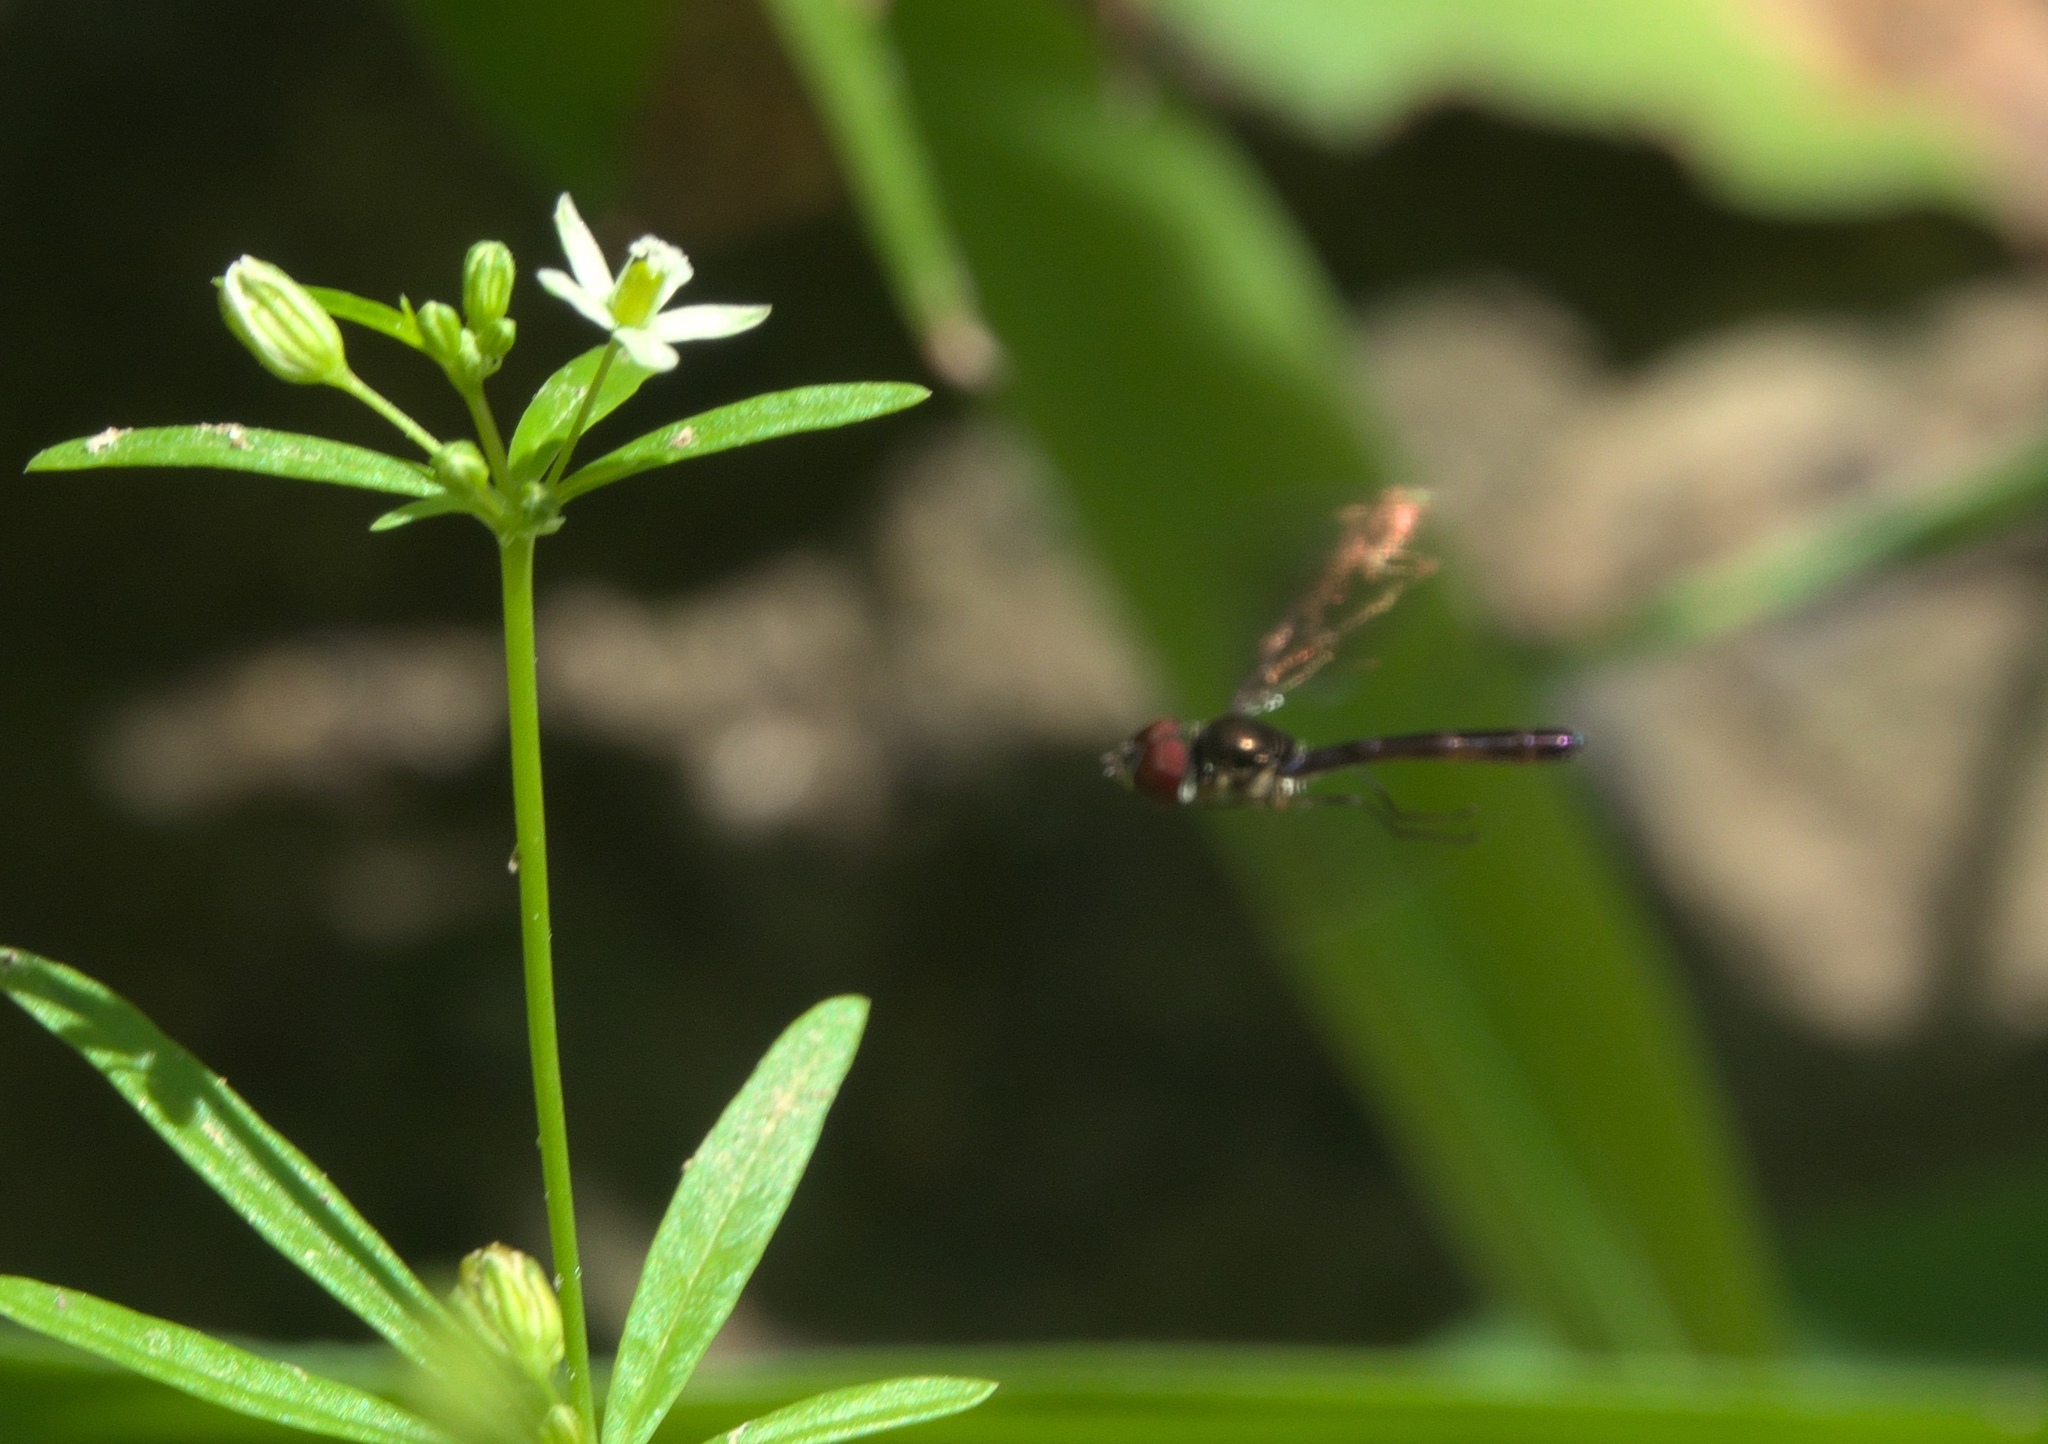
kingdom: Animalia
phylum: Arthropoda
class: Insecta
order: Diptera
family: Syrphidae
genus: Ocyptamus
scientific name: Ocyptamus fuscipennis
